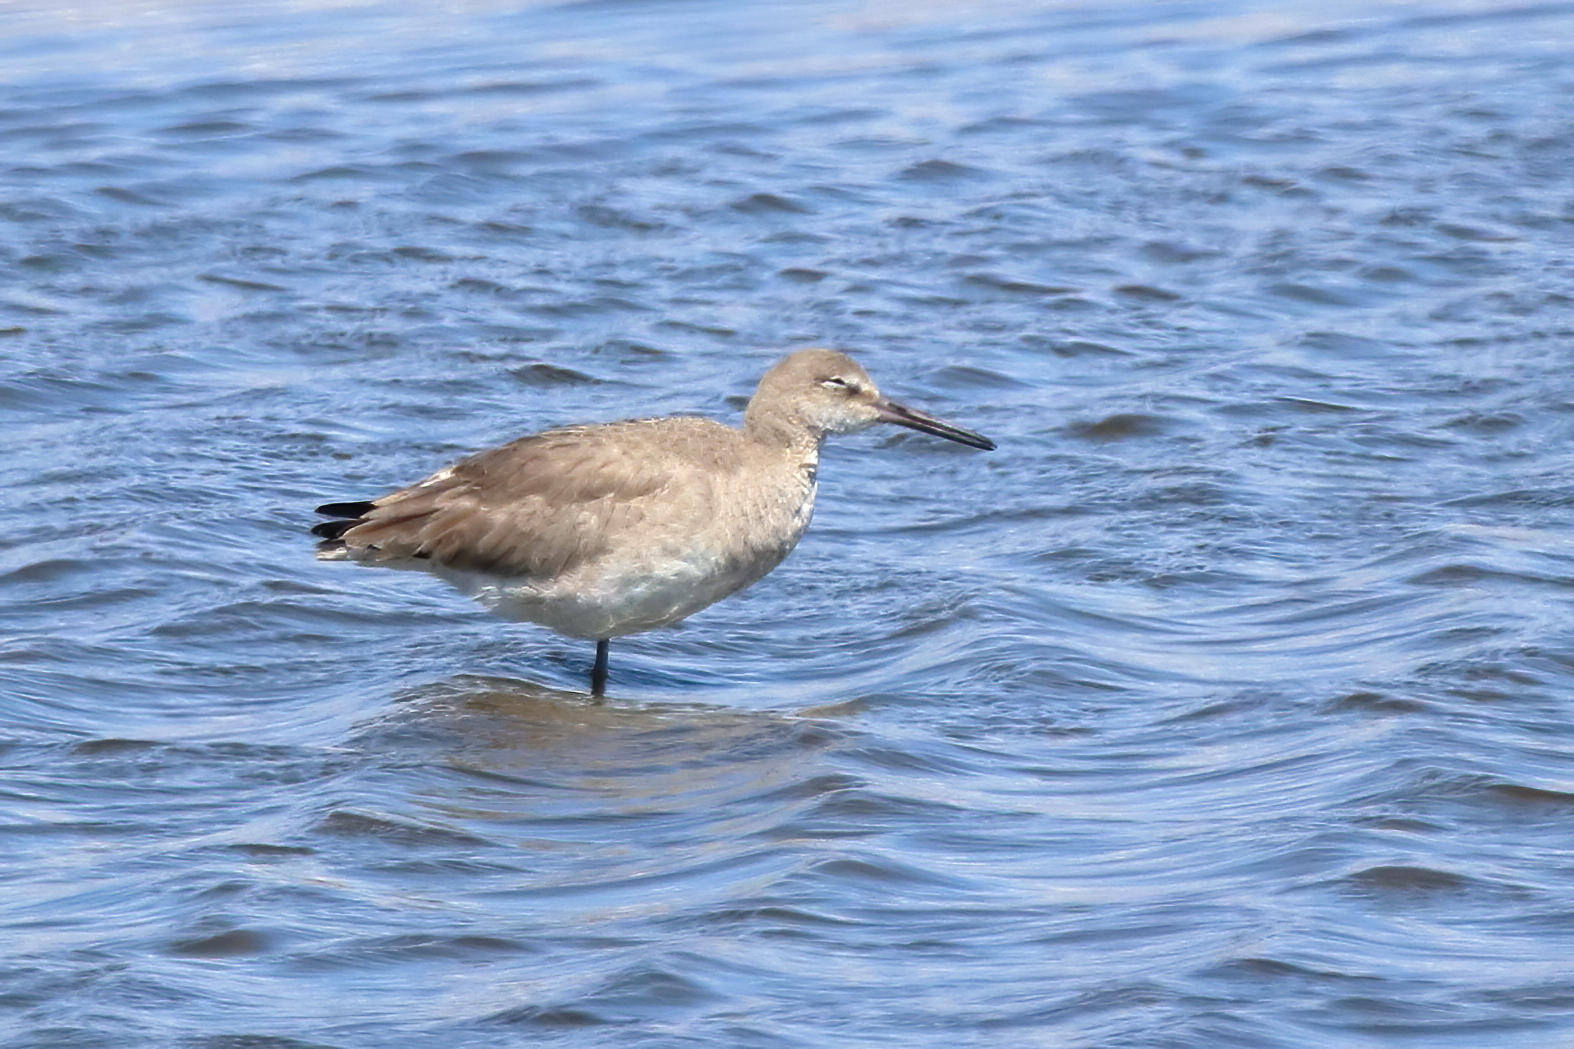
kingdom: Animalia
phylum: Chordata
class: Aves
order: Charadriiformes
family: Scolopacidae
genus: Tringa
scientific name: Tringa semipalmata
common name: Willet
